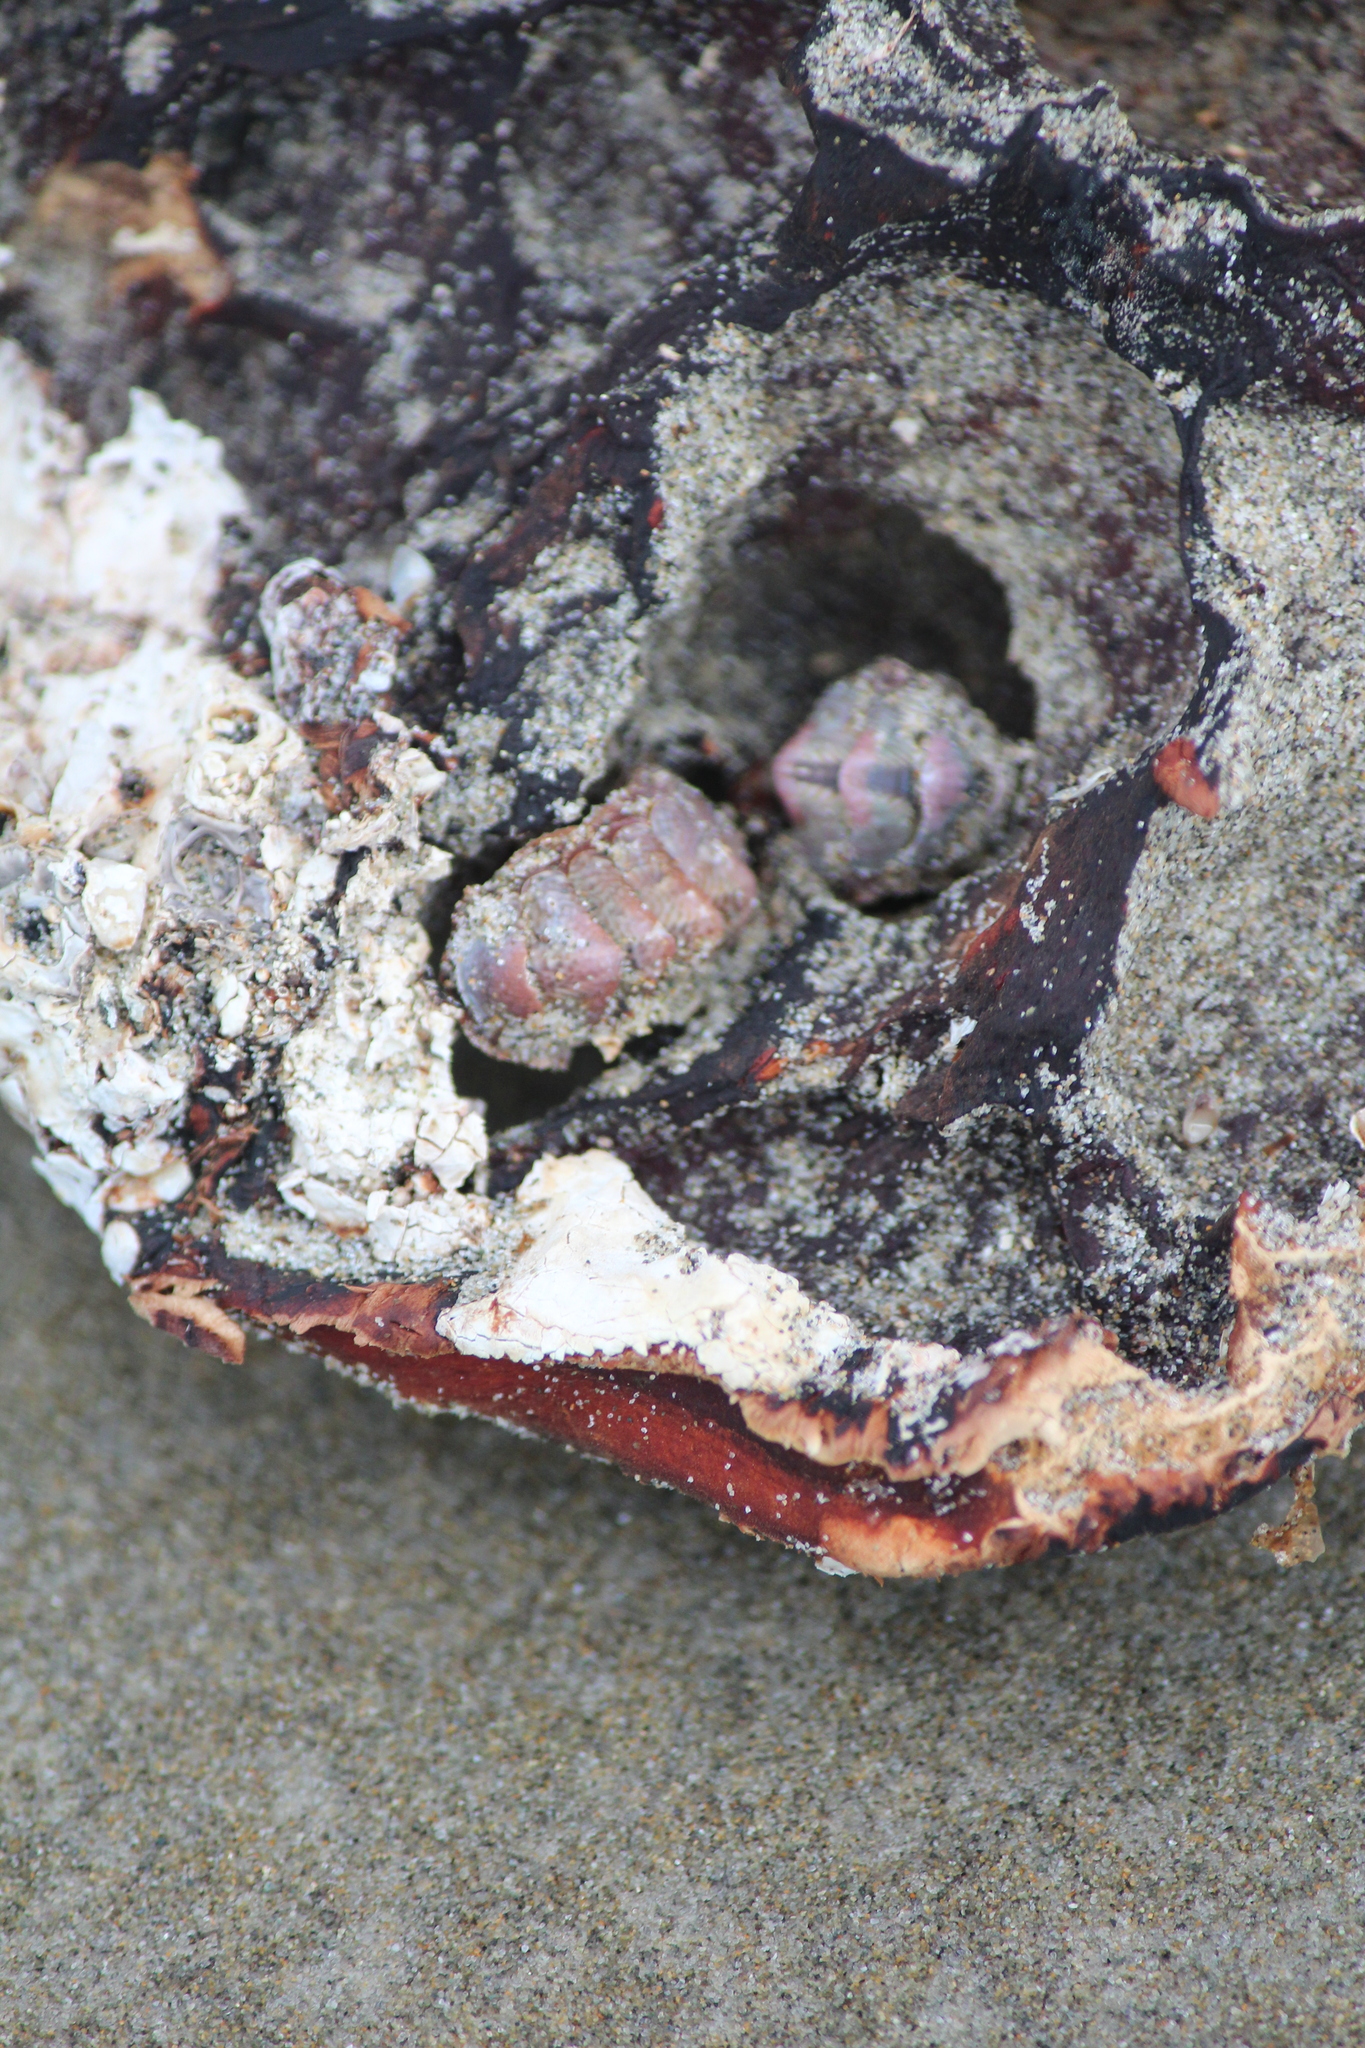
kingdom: Animalia
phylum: Mollusca
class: Polyplacophora
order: Chitonida
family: Chitonidae
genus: Onithochiton
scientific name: Onithochiton neglectus
